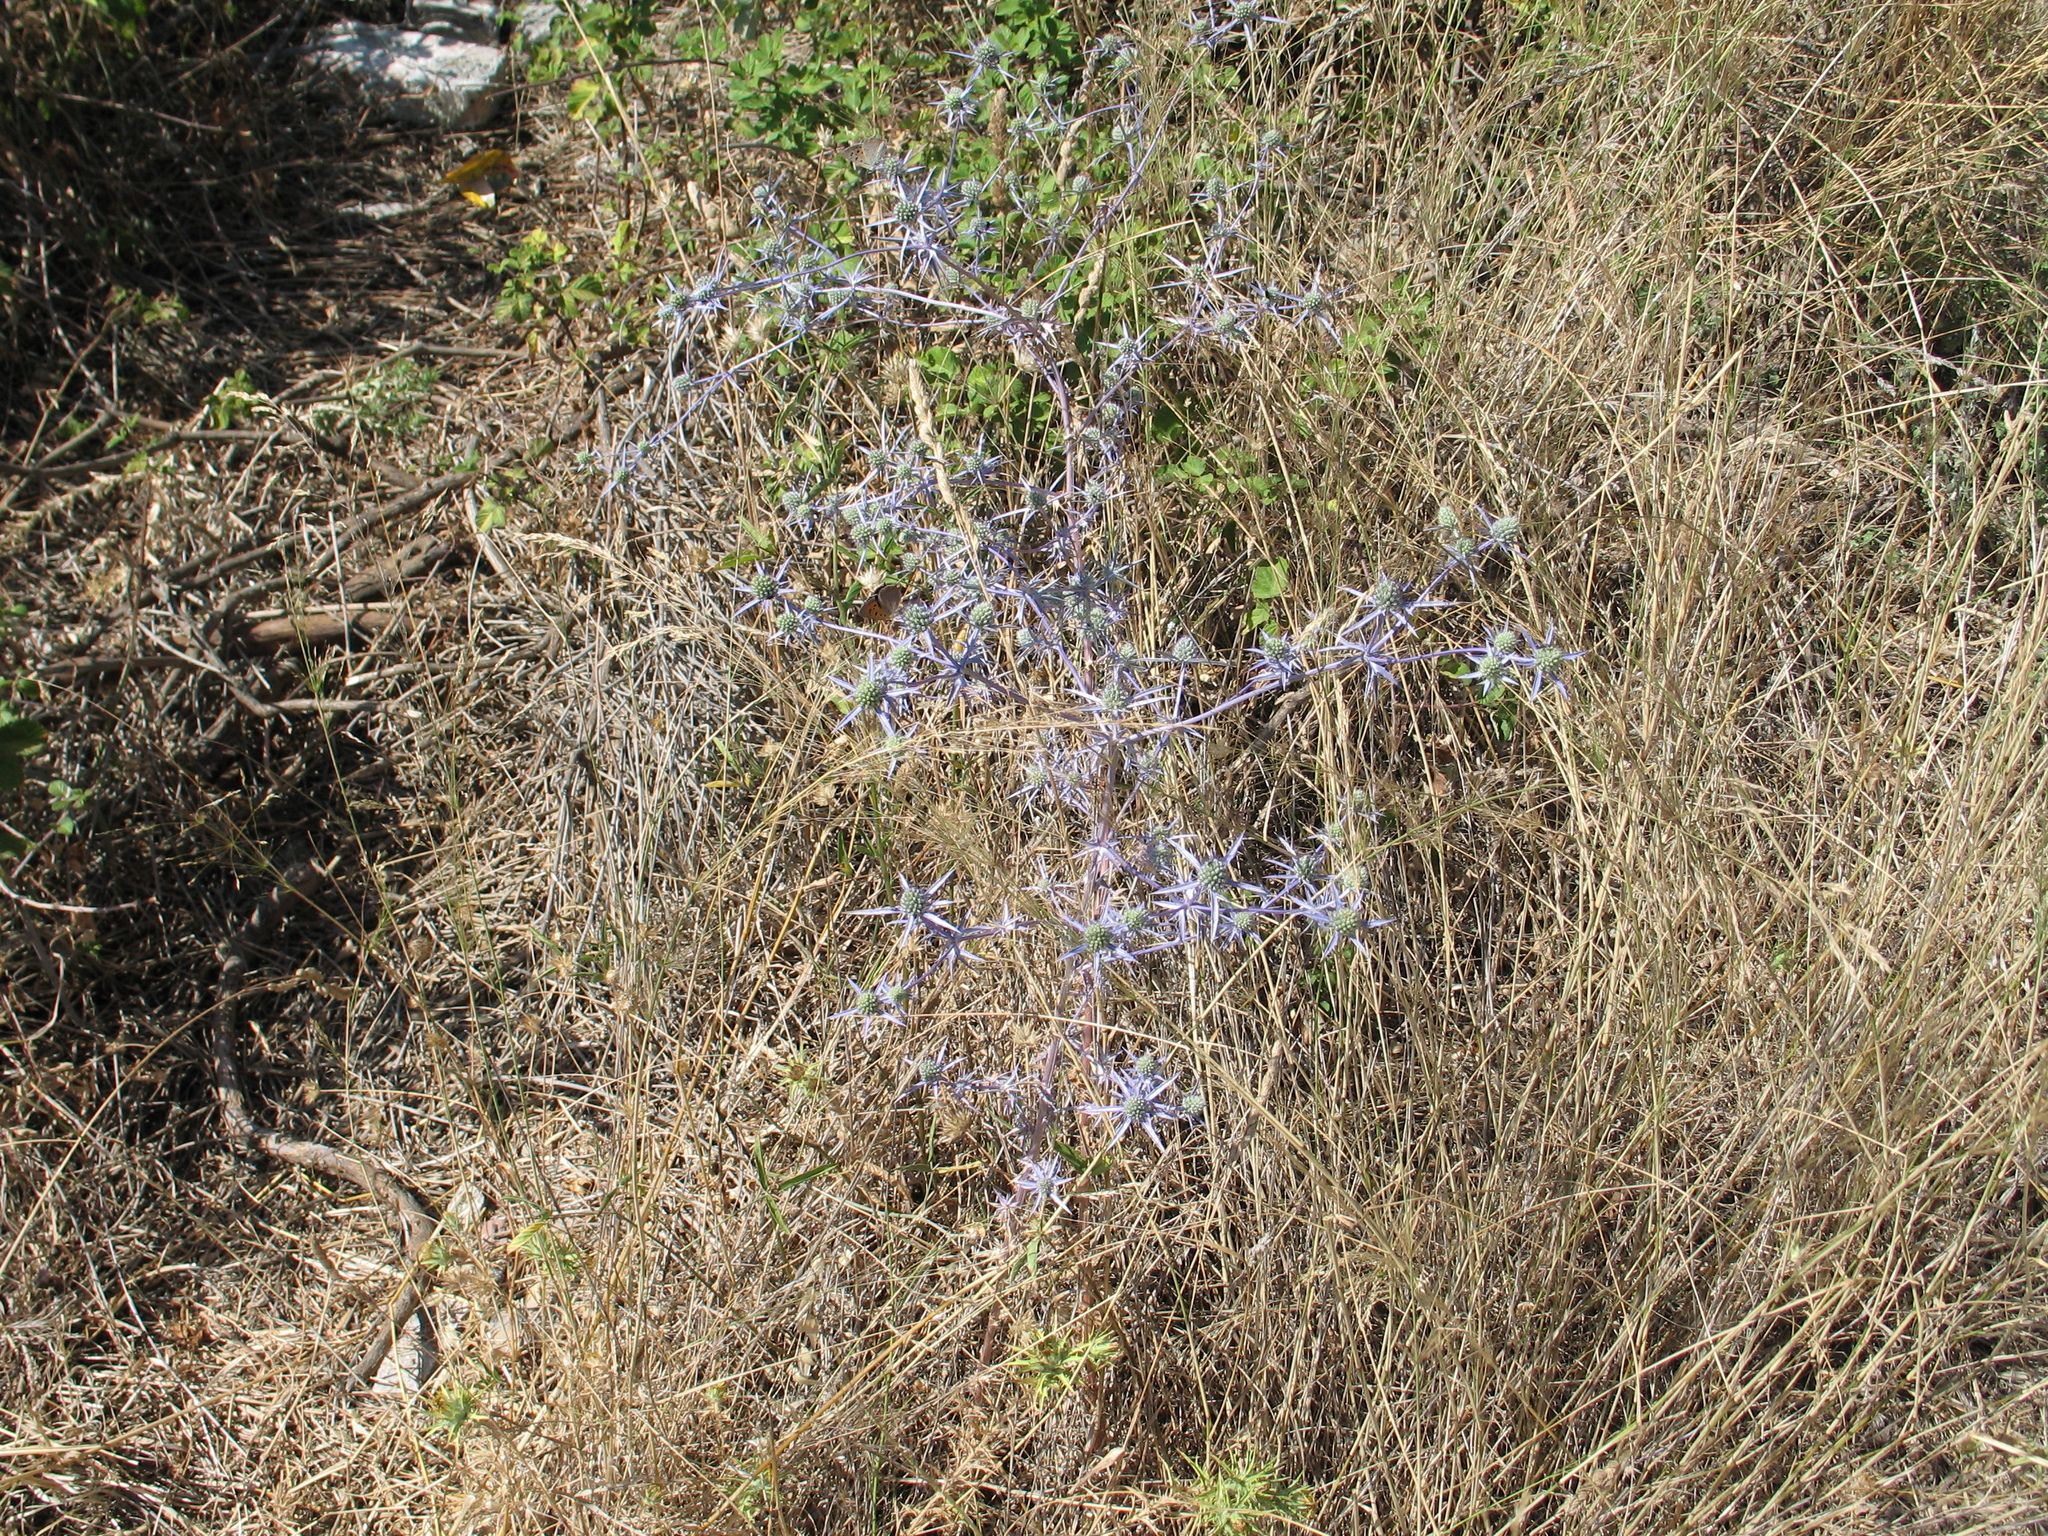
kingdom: Plantae
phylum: Tracheophyta
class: Magnoliopsida
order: Apiales
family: Apiaceae
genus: Eryngium
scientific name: Eryngium creticum
